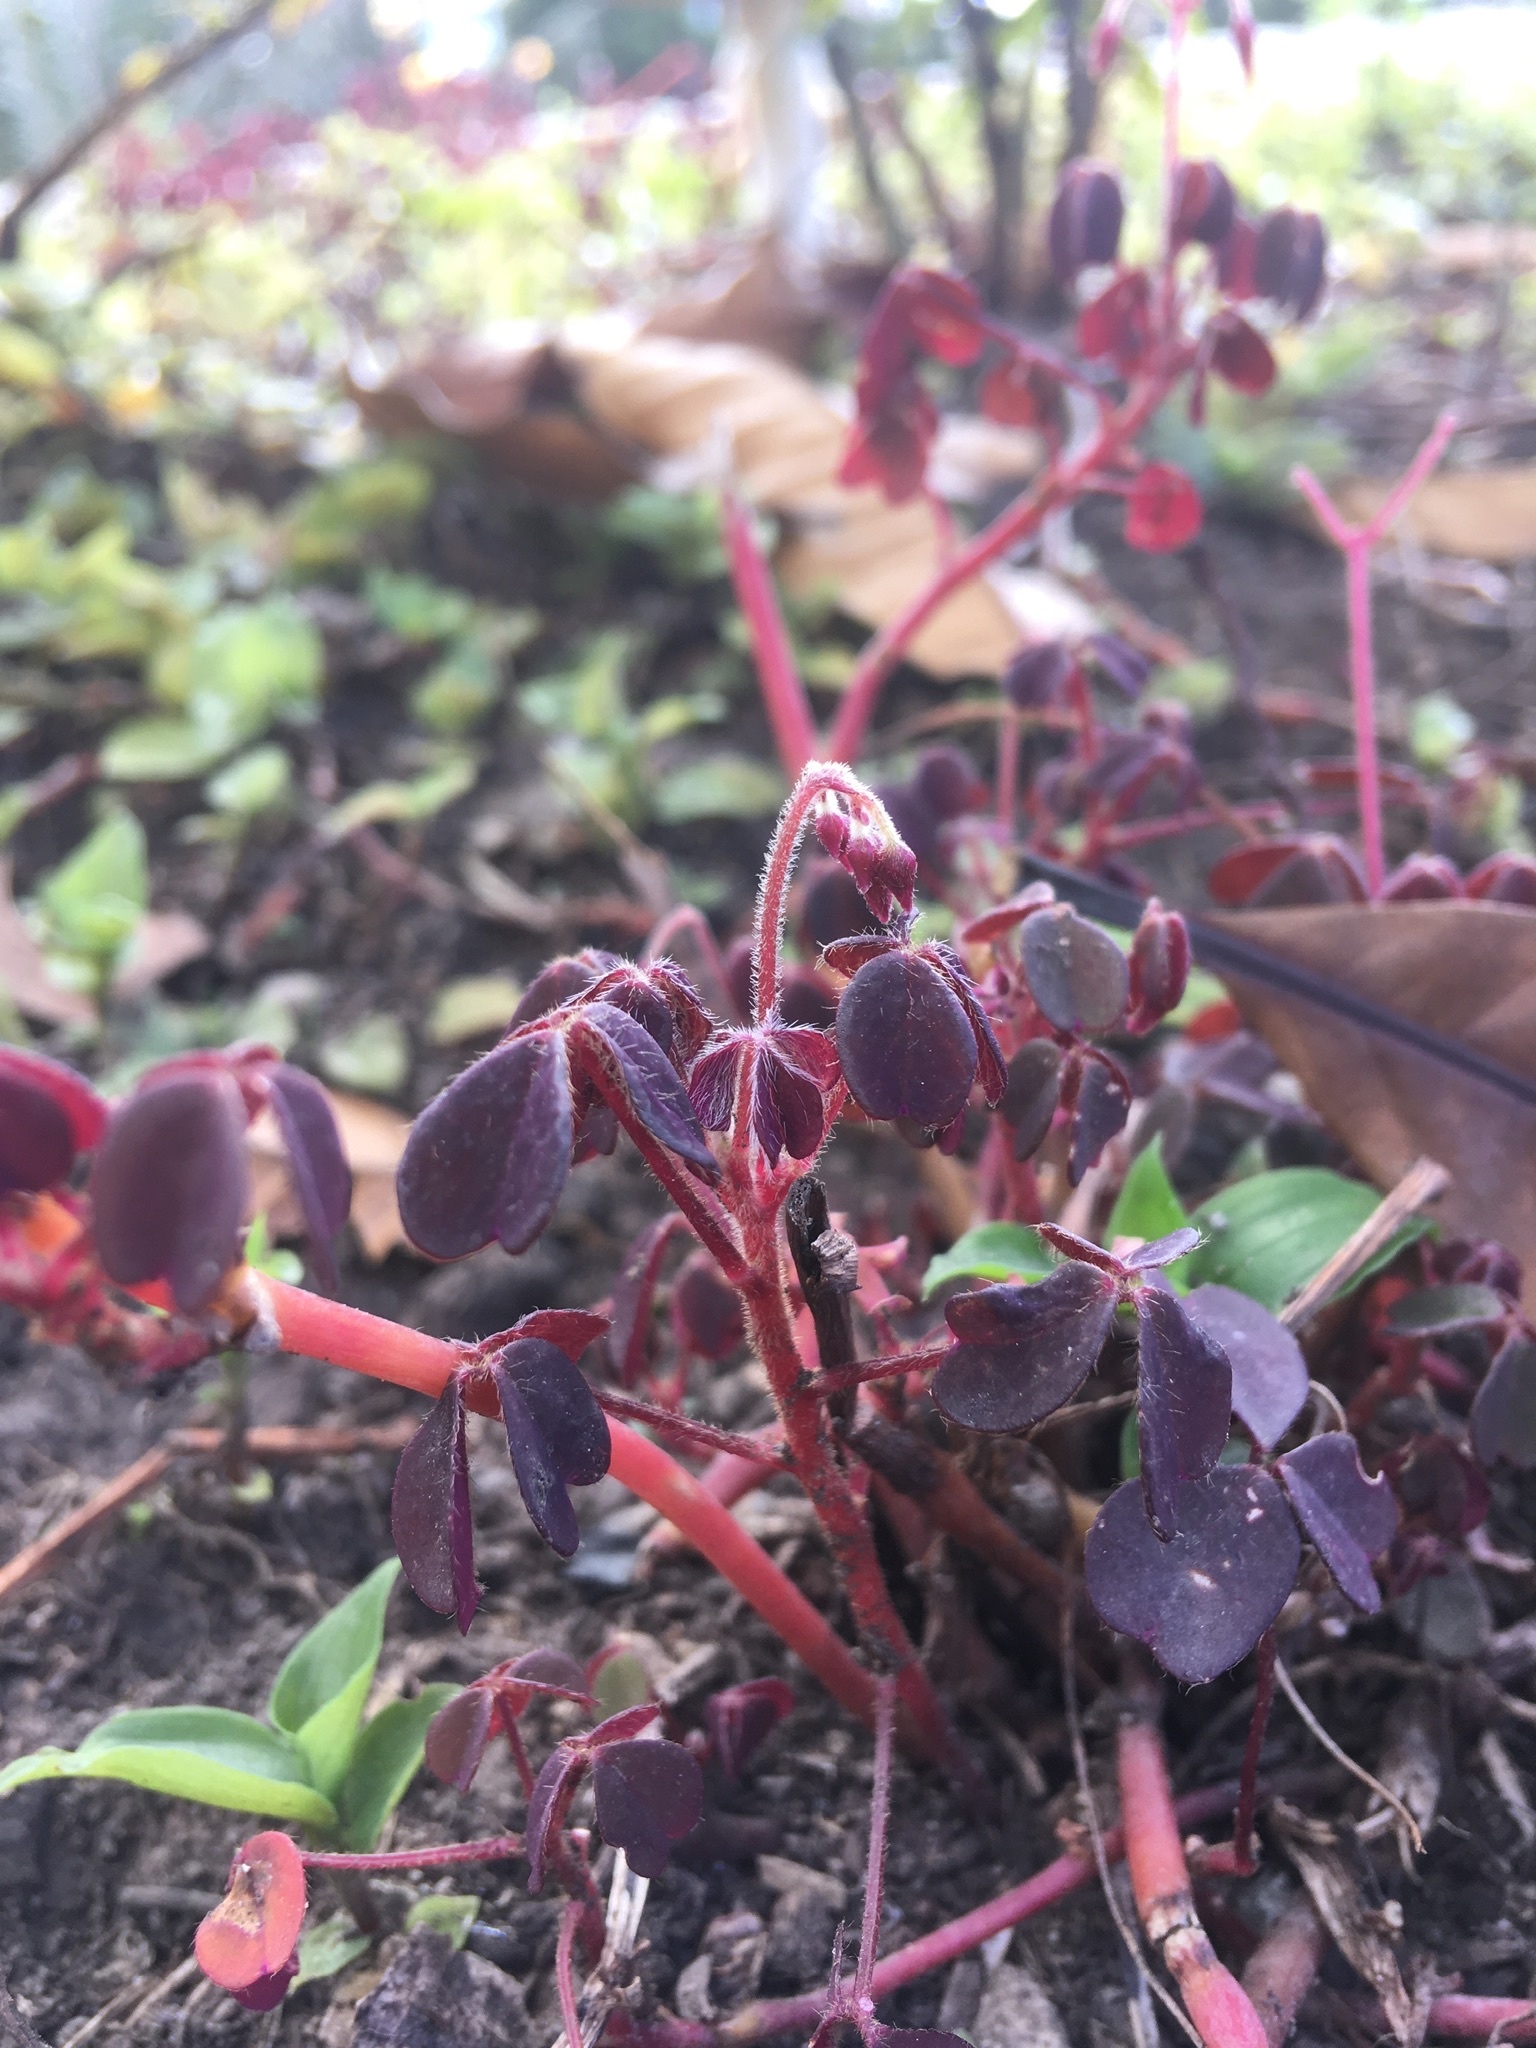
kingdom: Plantae
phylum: Tracheophyta
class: Magnoliopsida
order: Oxalidales
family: Oxalidaceae
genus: Oxalis
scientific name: Oxalis spiralis
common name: Spiral sorrel
